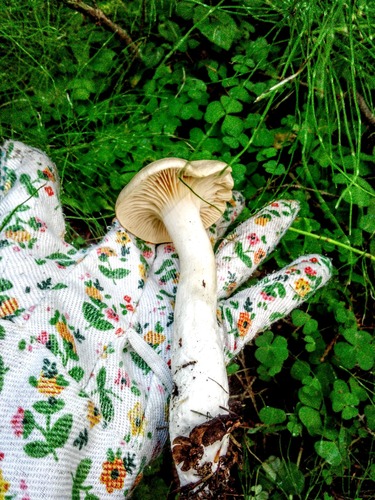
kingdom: Fungi
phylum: Basidiomycota
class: Agaricomycetes
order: Agaricales
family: Hygrophoraceae
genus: Hygrophorus
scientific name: Hygrophorus
